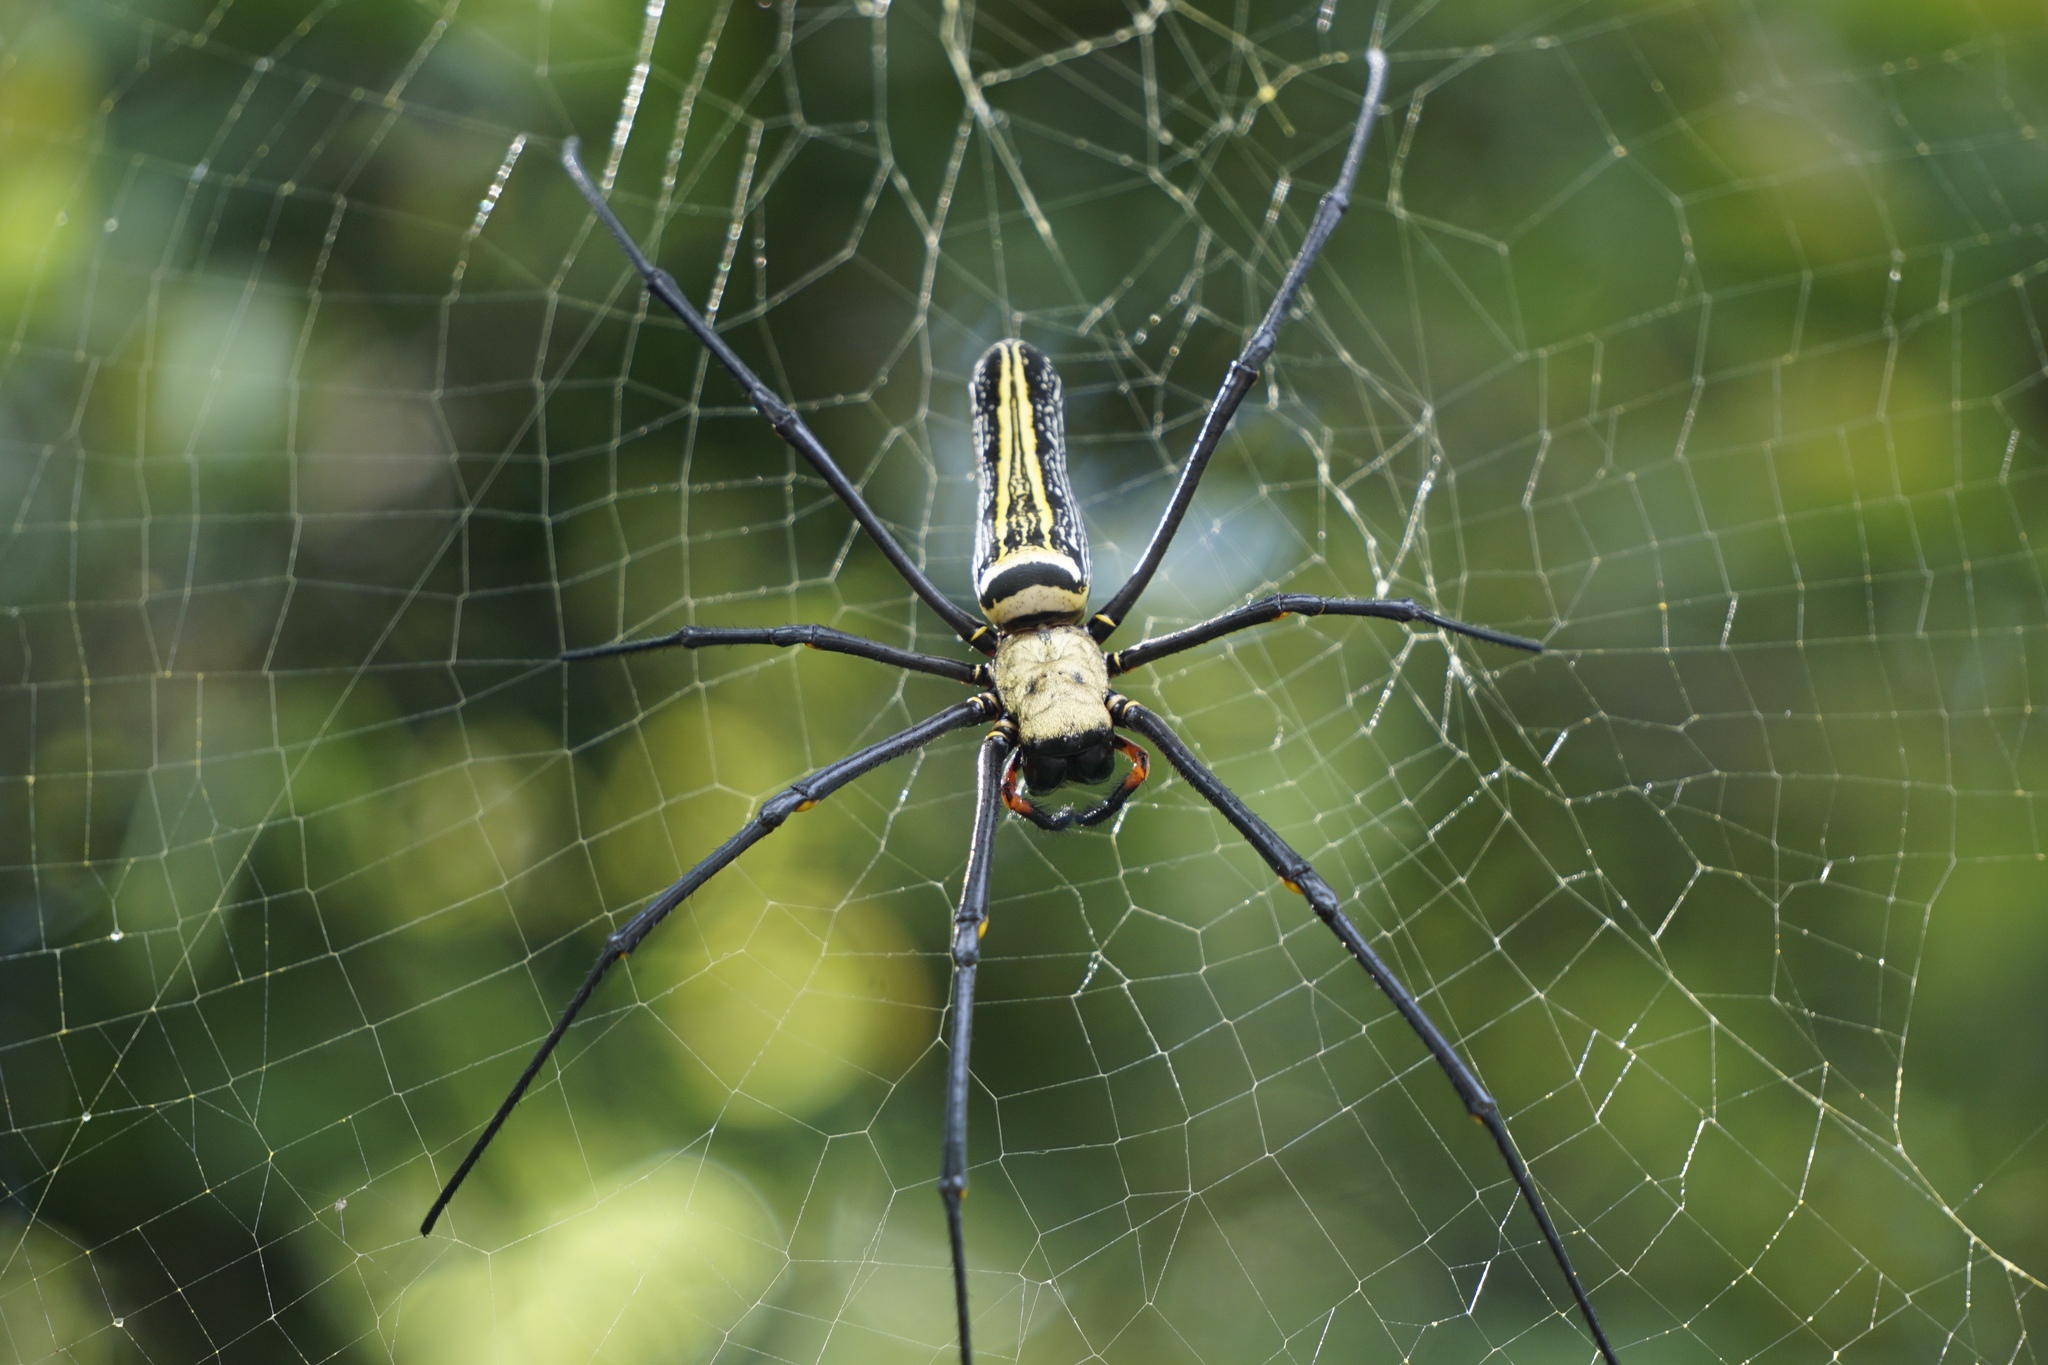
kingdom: Animalia
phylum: Arthropoda
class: Arachnida
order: Araneae
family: Araneidae
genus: Nephila
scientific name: Nephila pilipes
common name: Giant golden orb weaver
